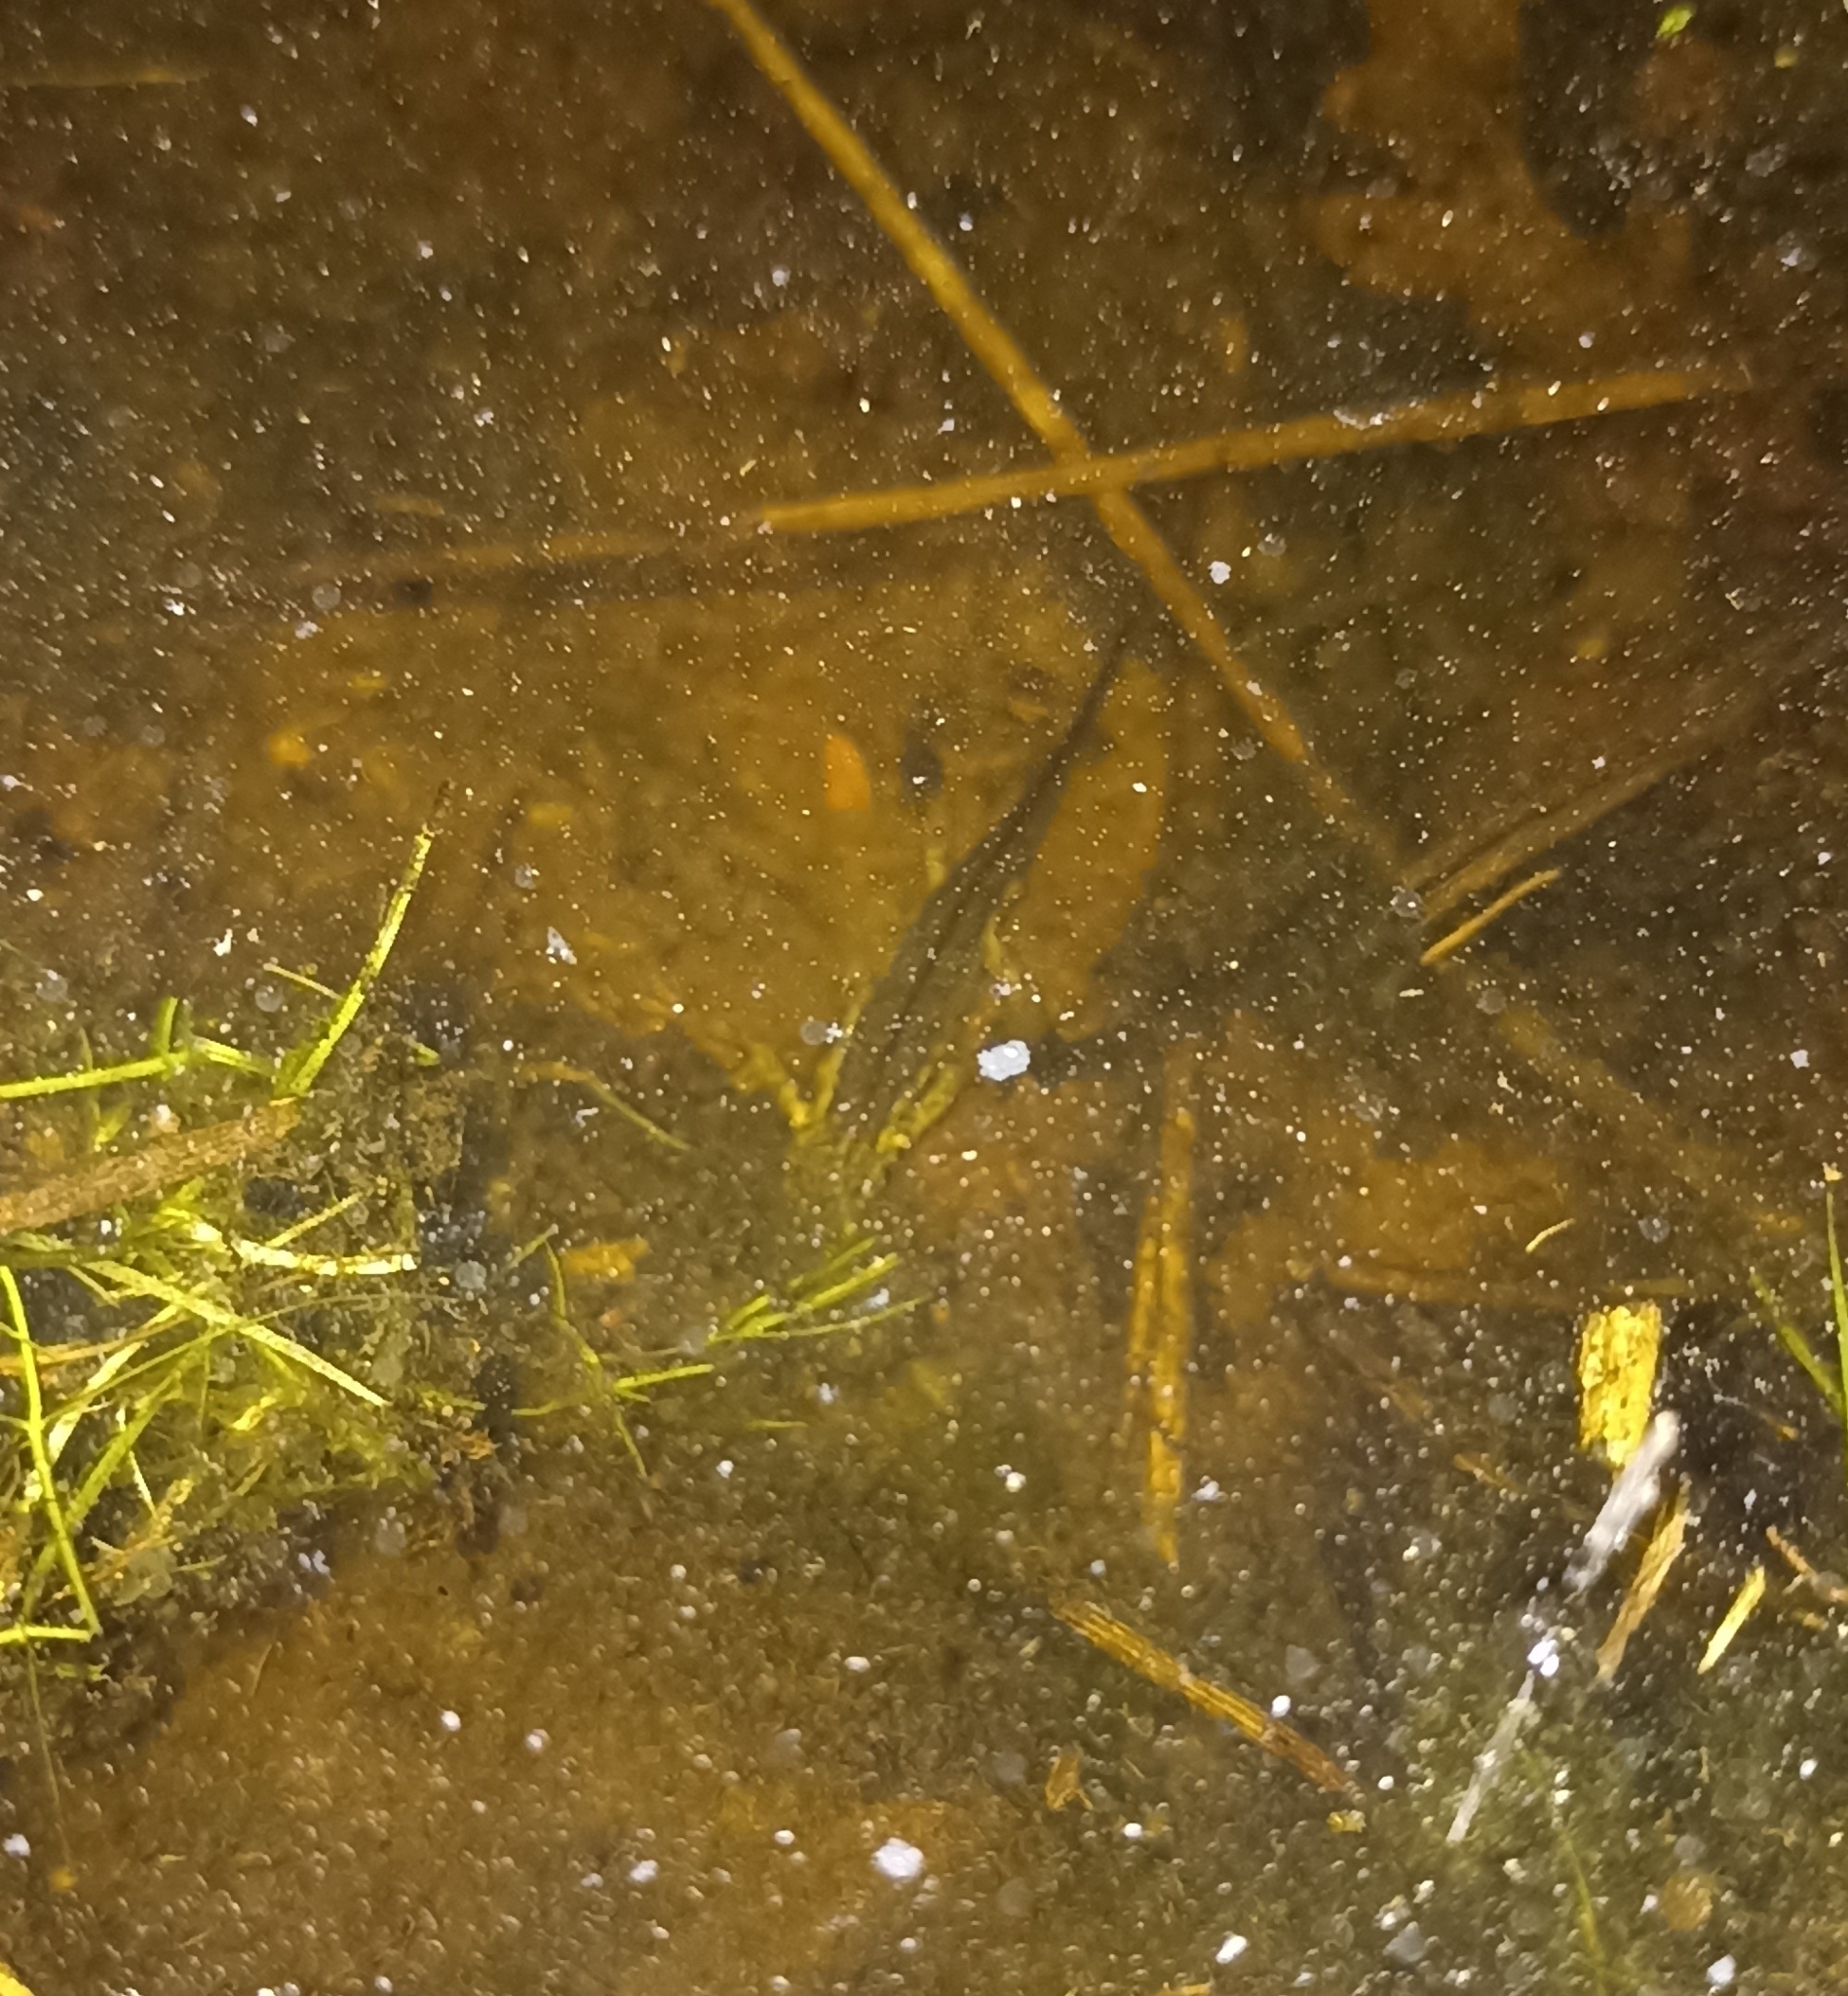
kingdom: Animalia
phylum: Chordata
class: Amphibia
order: Caudata
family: Salamandridae
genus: Lissotriton
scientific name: Lissotriton helveticus
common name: Palmate newt
